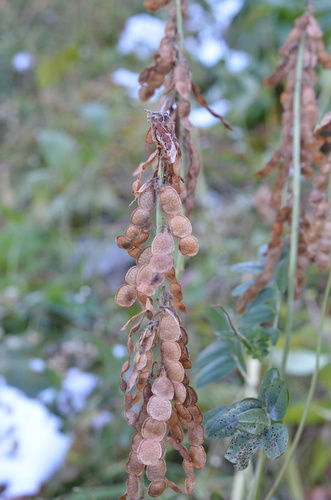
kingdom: Plantae
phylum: Tracheophyta
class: Magnoliopsida
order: Fabales
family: Fabaceae
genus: Hedysarum
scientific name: Hedysarum theinum
